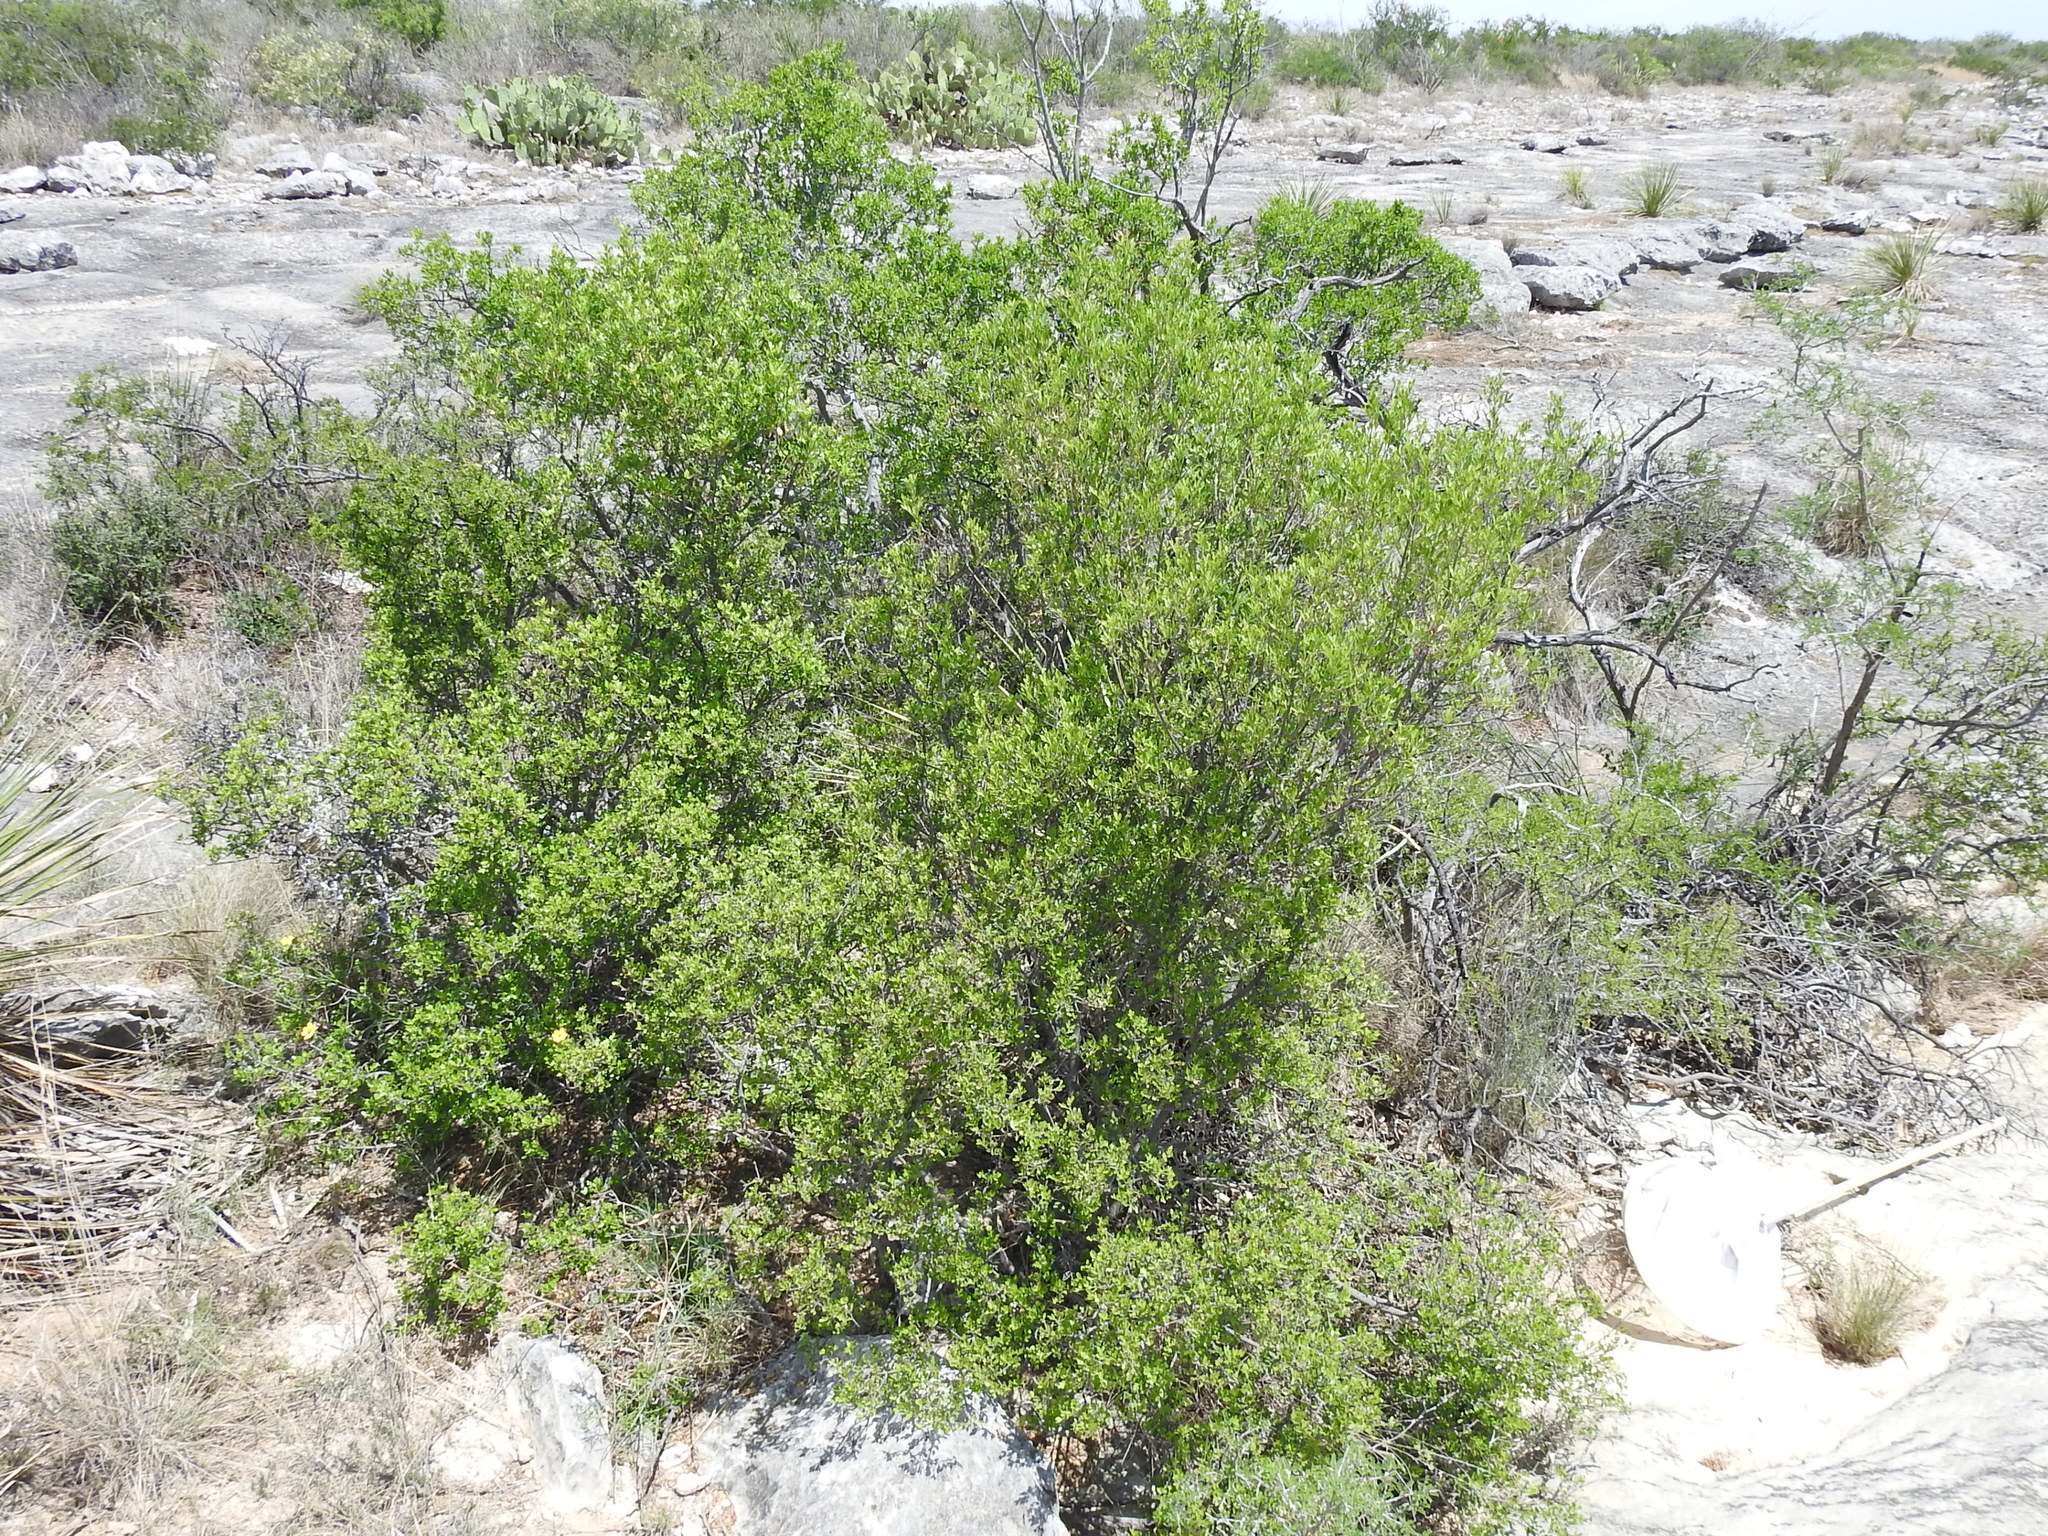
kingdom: Plantae
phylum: Tracheophyta
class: Magnoliopsida
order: Lamiales
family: Oleaceae
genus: Fraxinus
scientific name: Fraxinus greggii
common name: Gregg ash
